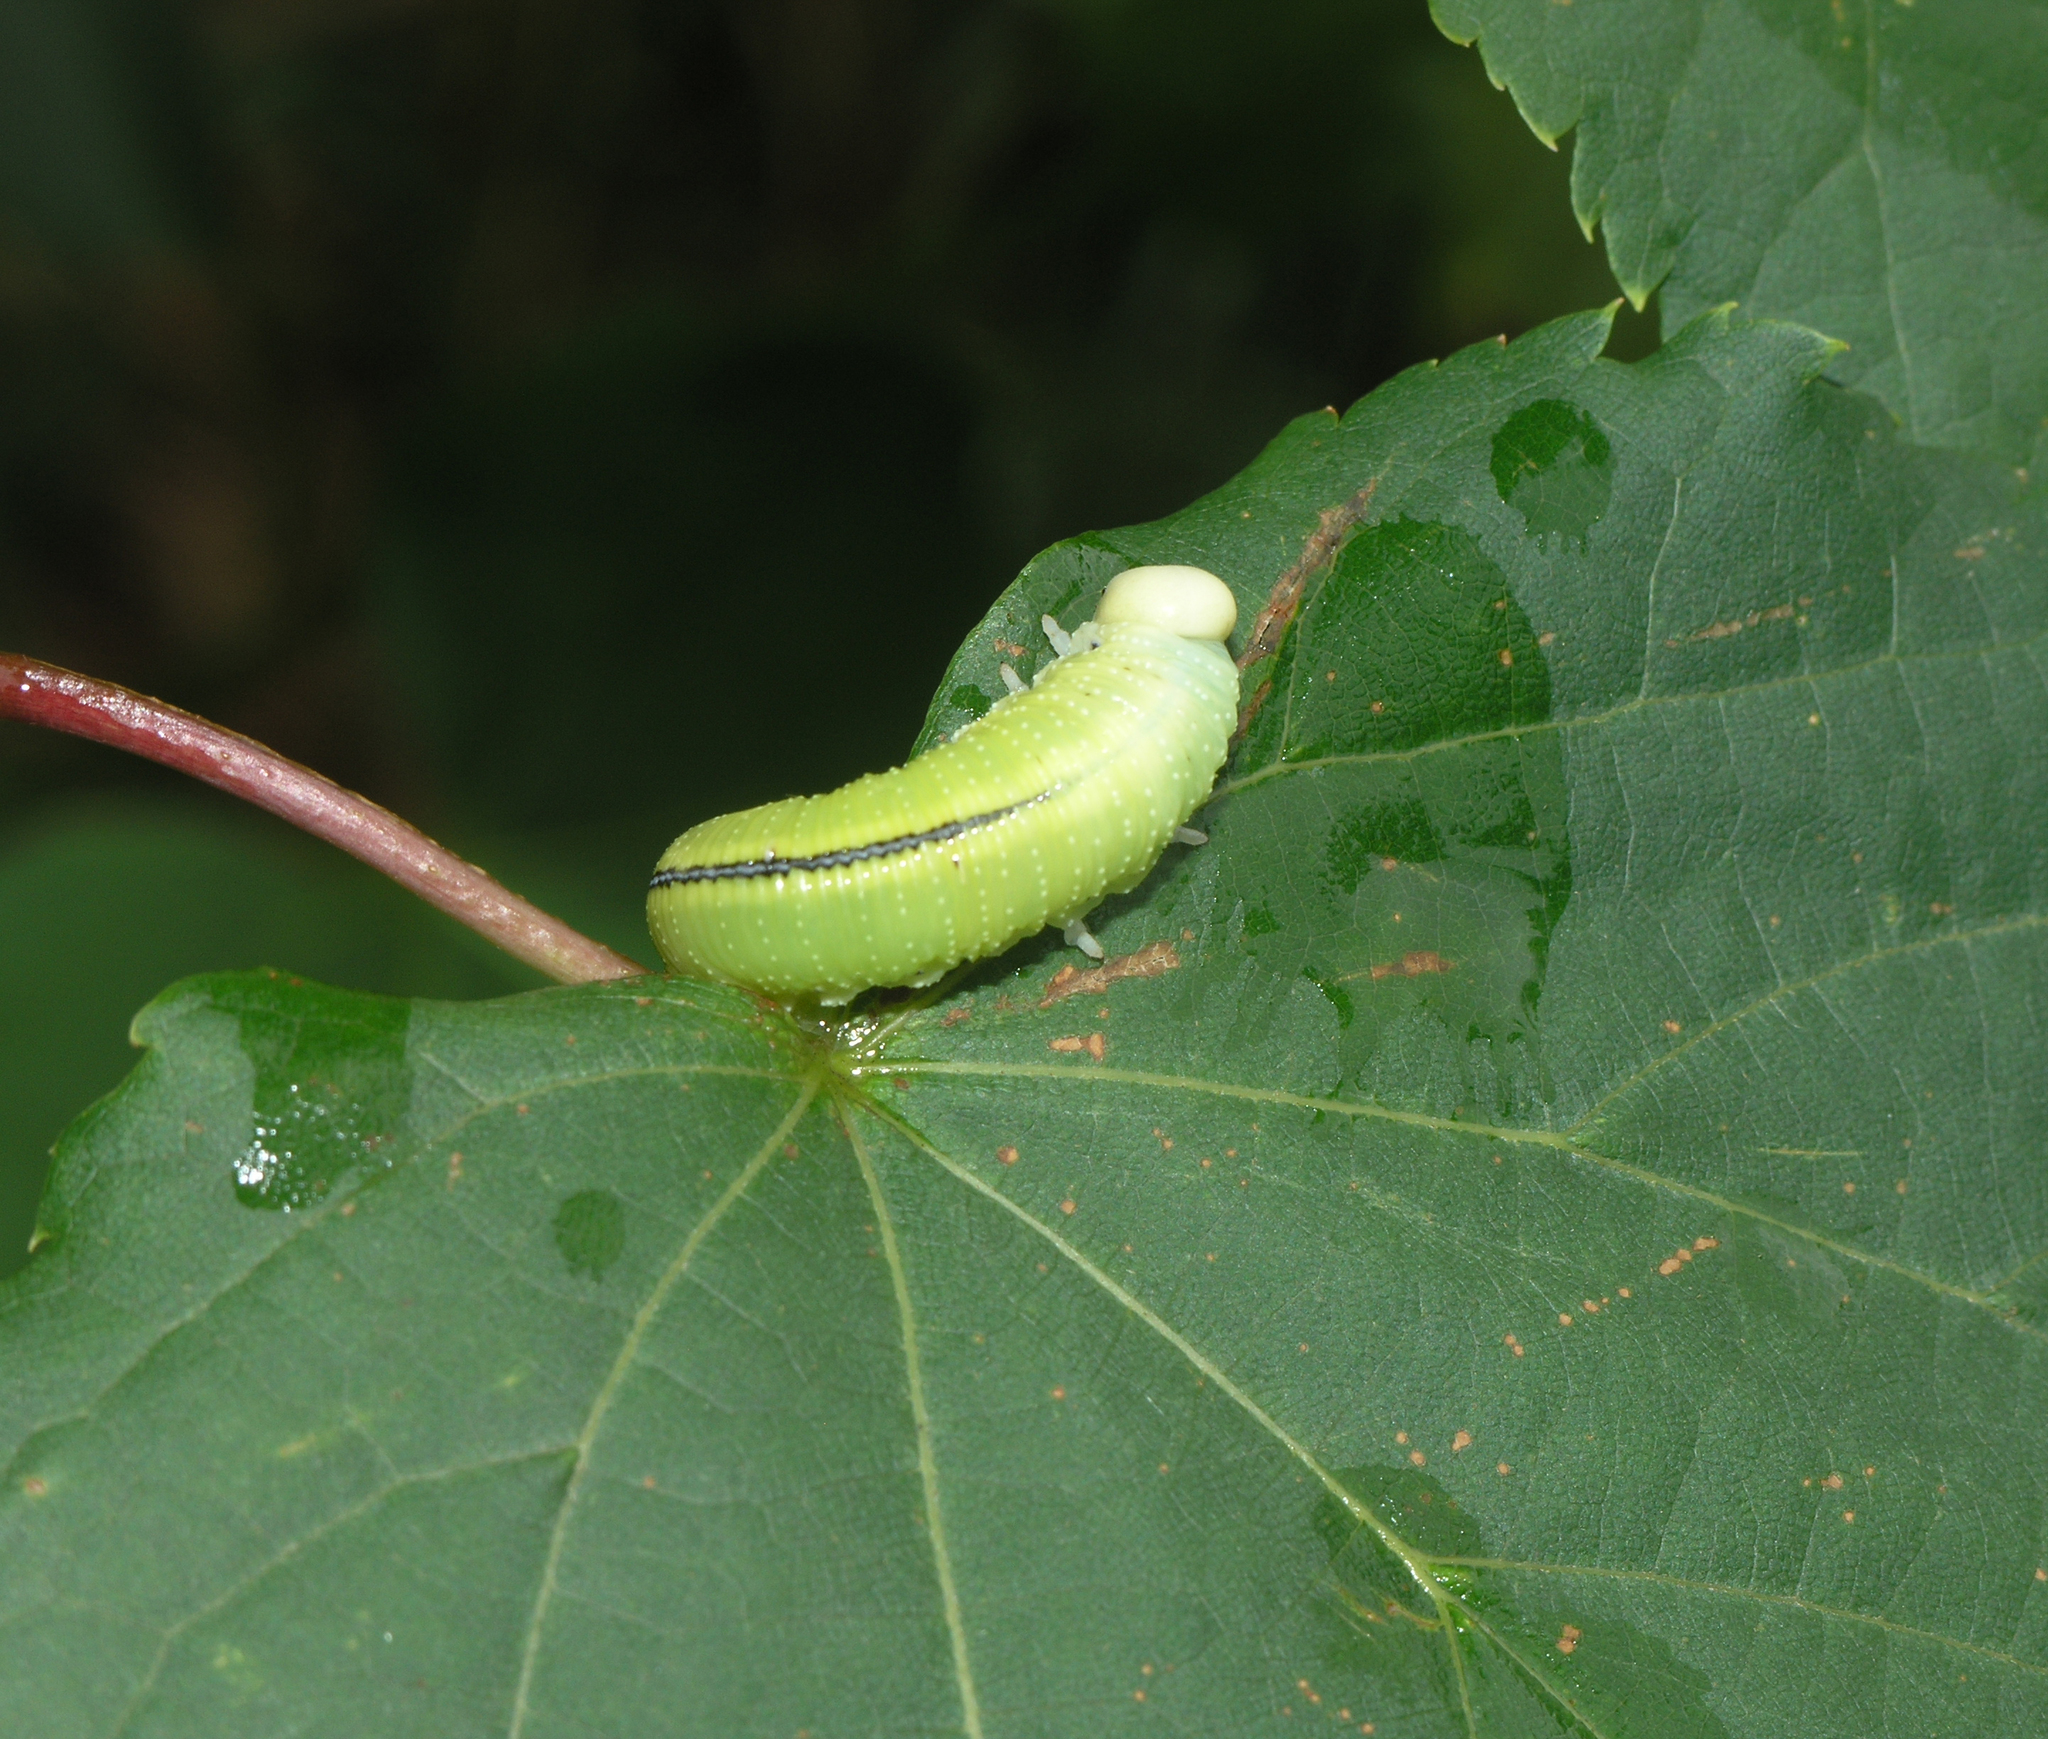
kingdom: Animalia
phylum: Arthropoda
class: Insecta
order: Hymenoptera
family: Cimbicidae
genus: Cimbex
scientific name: Cimbex femoratus
